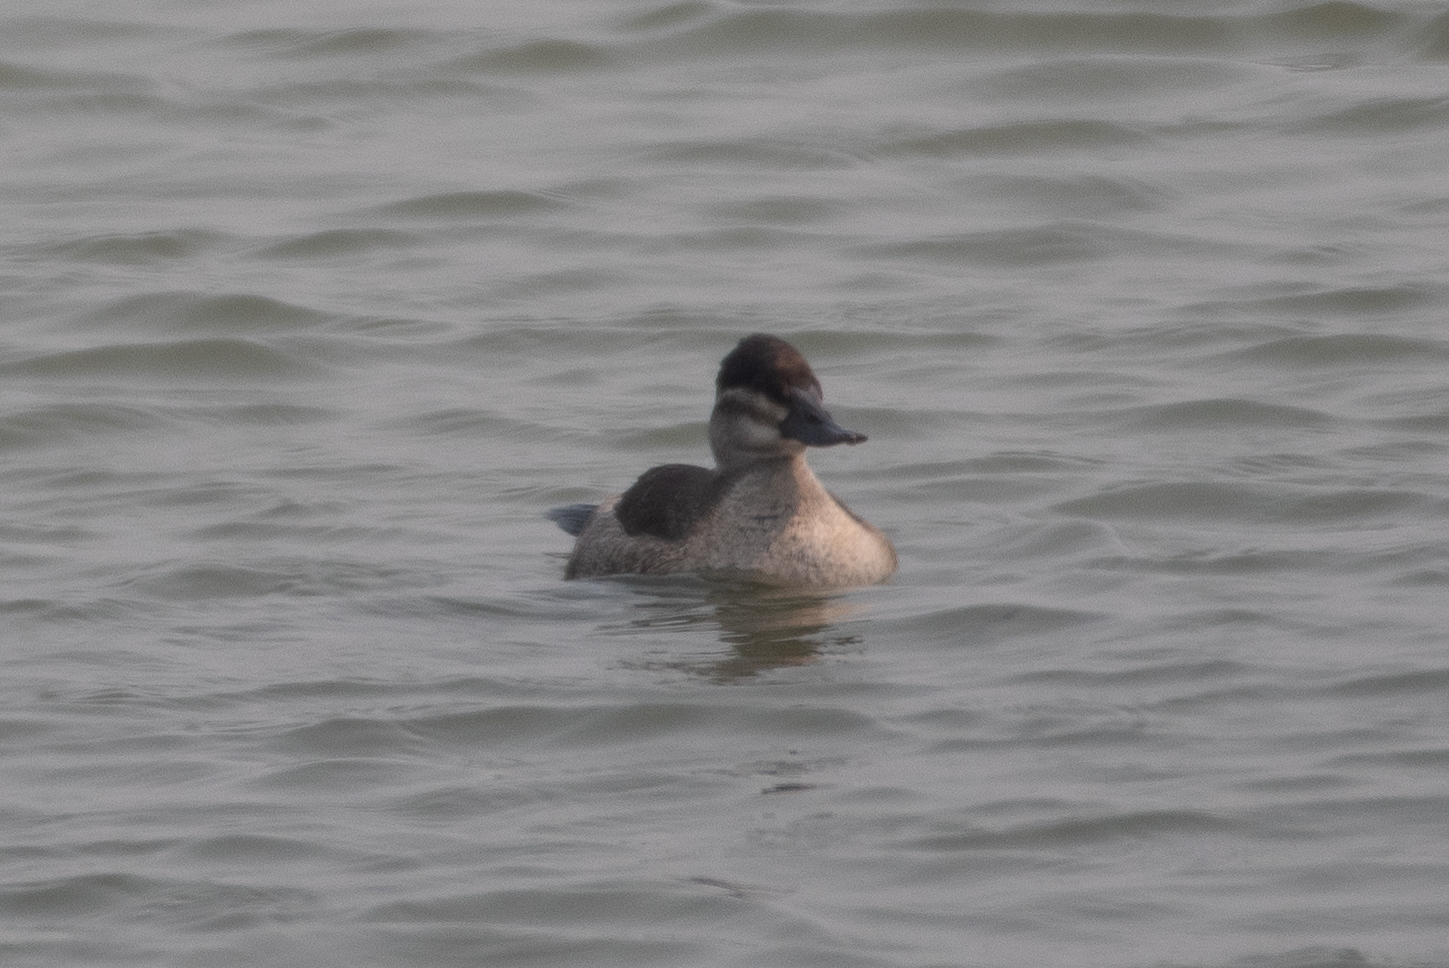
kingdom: Animalia
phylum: Chordata
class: Aves
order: Anseriformes
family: Anatidae
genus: Oxyura
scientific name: Oxyura jamaicensis
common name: Ruddy duck
